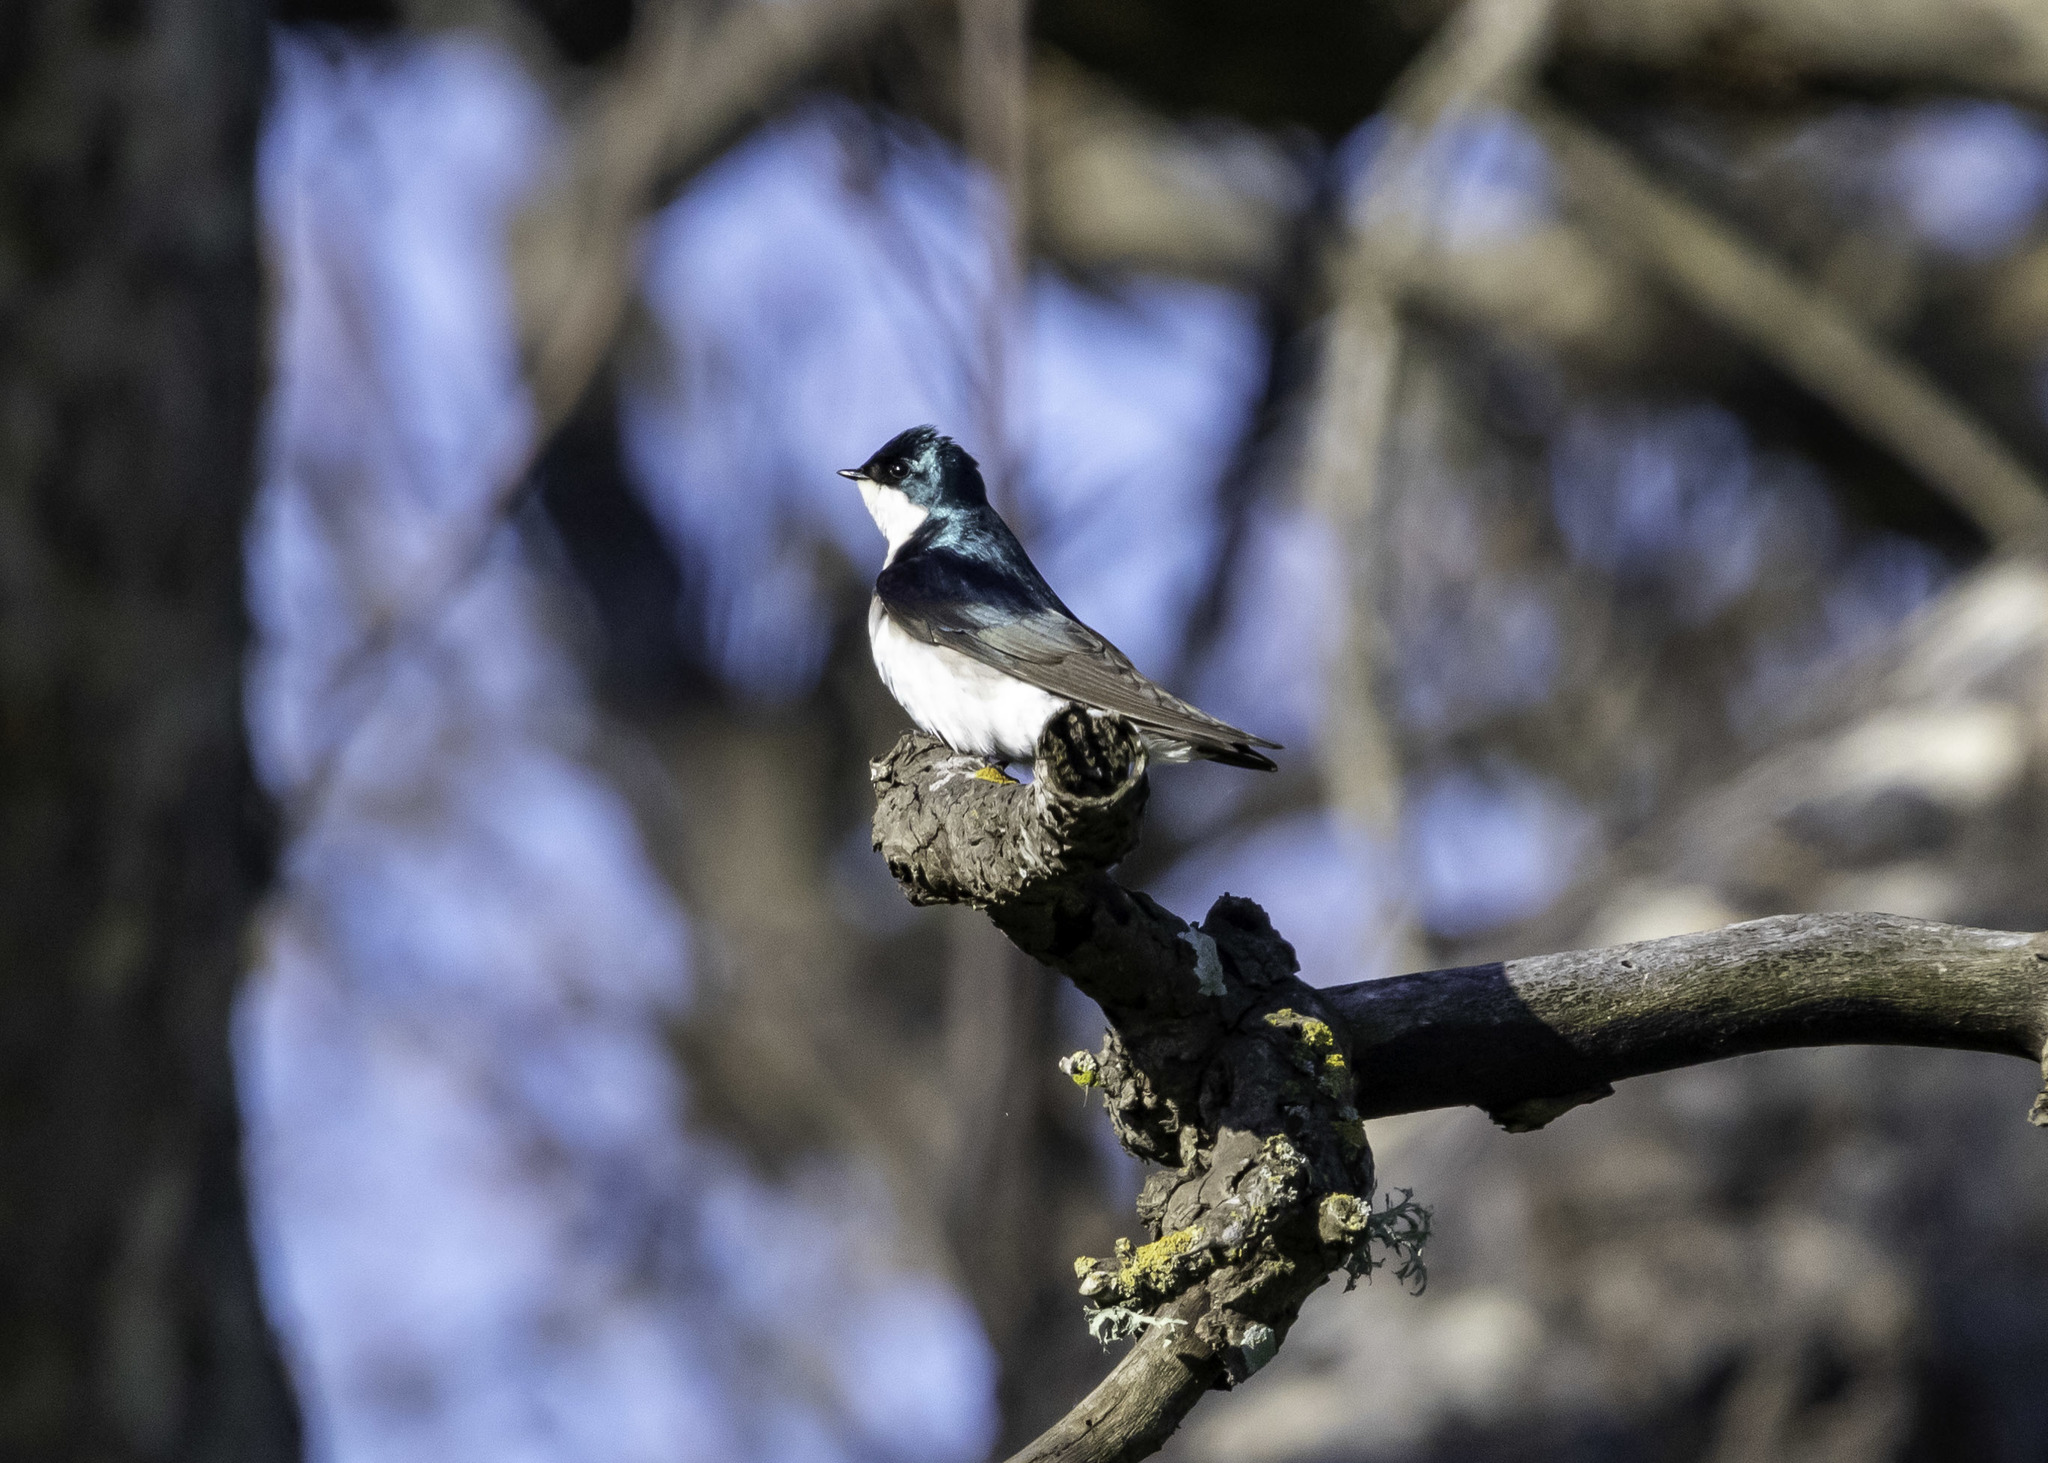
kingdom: Animalia
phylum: Chordata
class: Aves
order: Passeriformes
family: Hirundinidae
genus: Tachycineta
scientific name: Tachycineta bicolor
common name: Tree swallow
